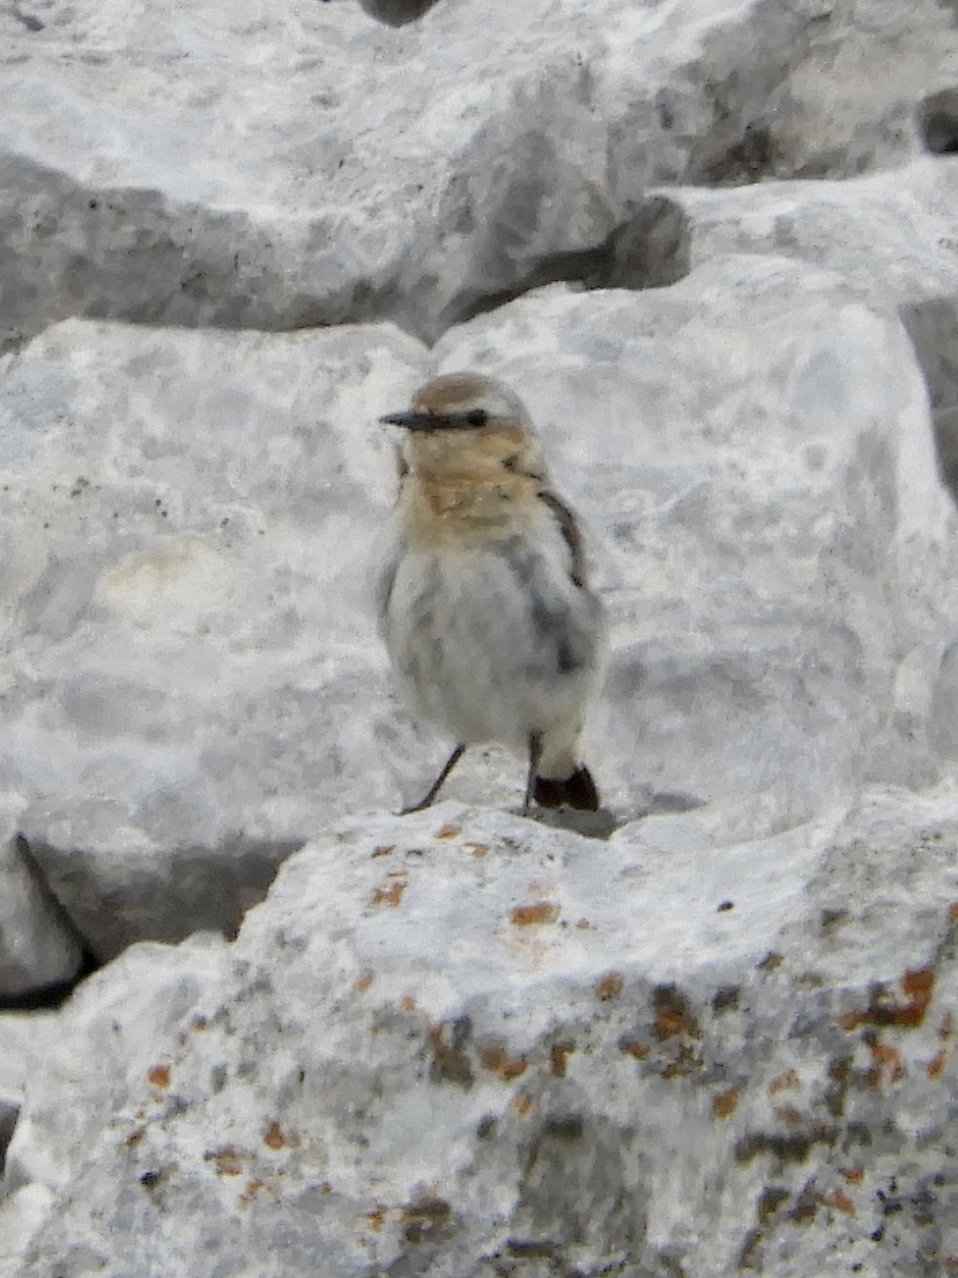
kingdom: Animalia
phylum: Chordata
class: Aves
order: Passeriformes
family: Muscicapidae
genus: Oenanthe
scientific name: Oenanthe oenanthe
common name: Northern wheatear
